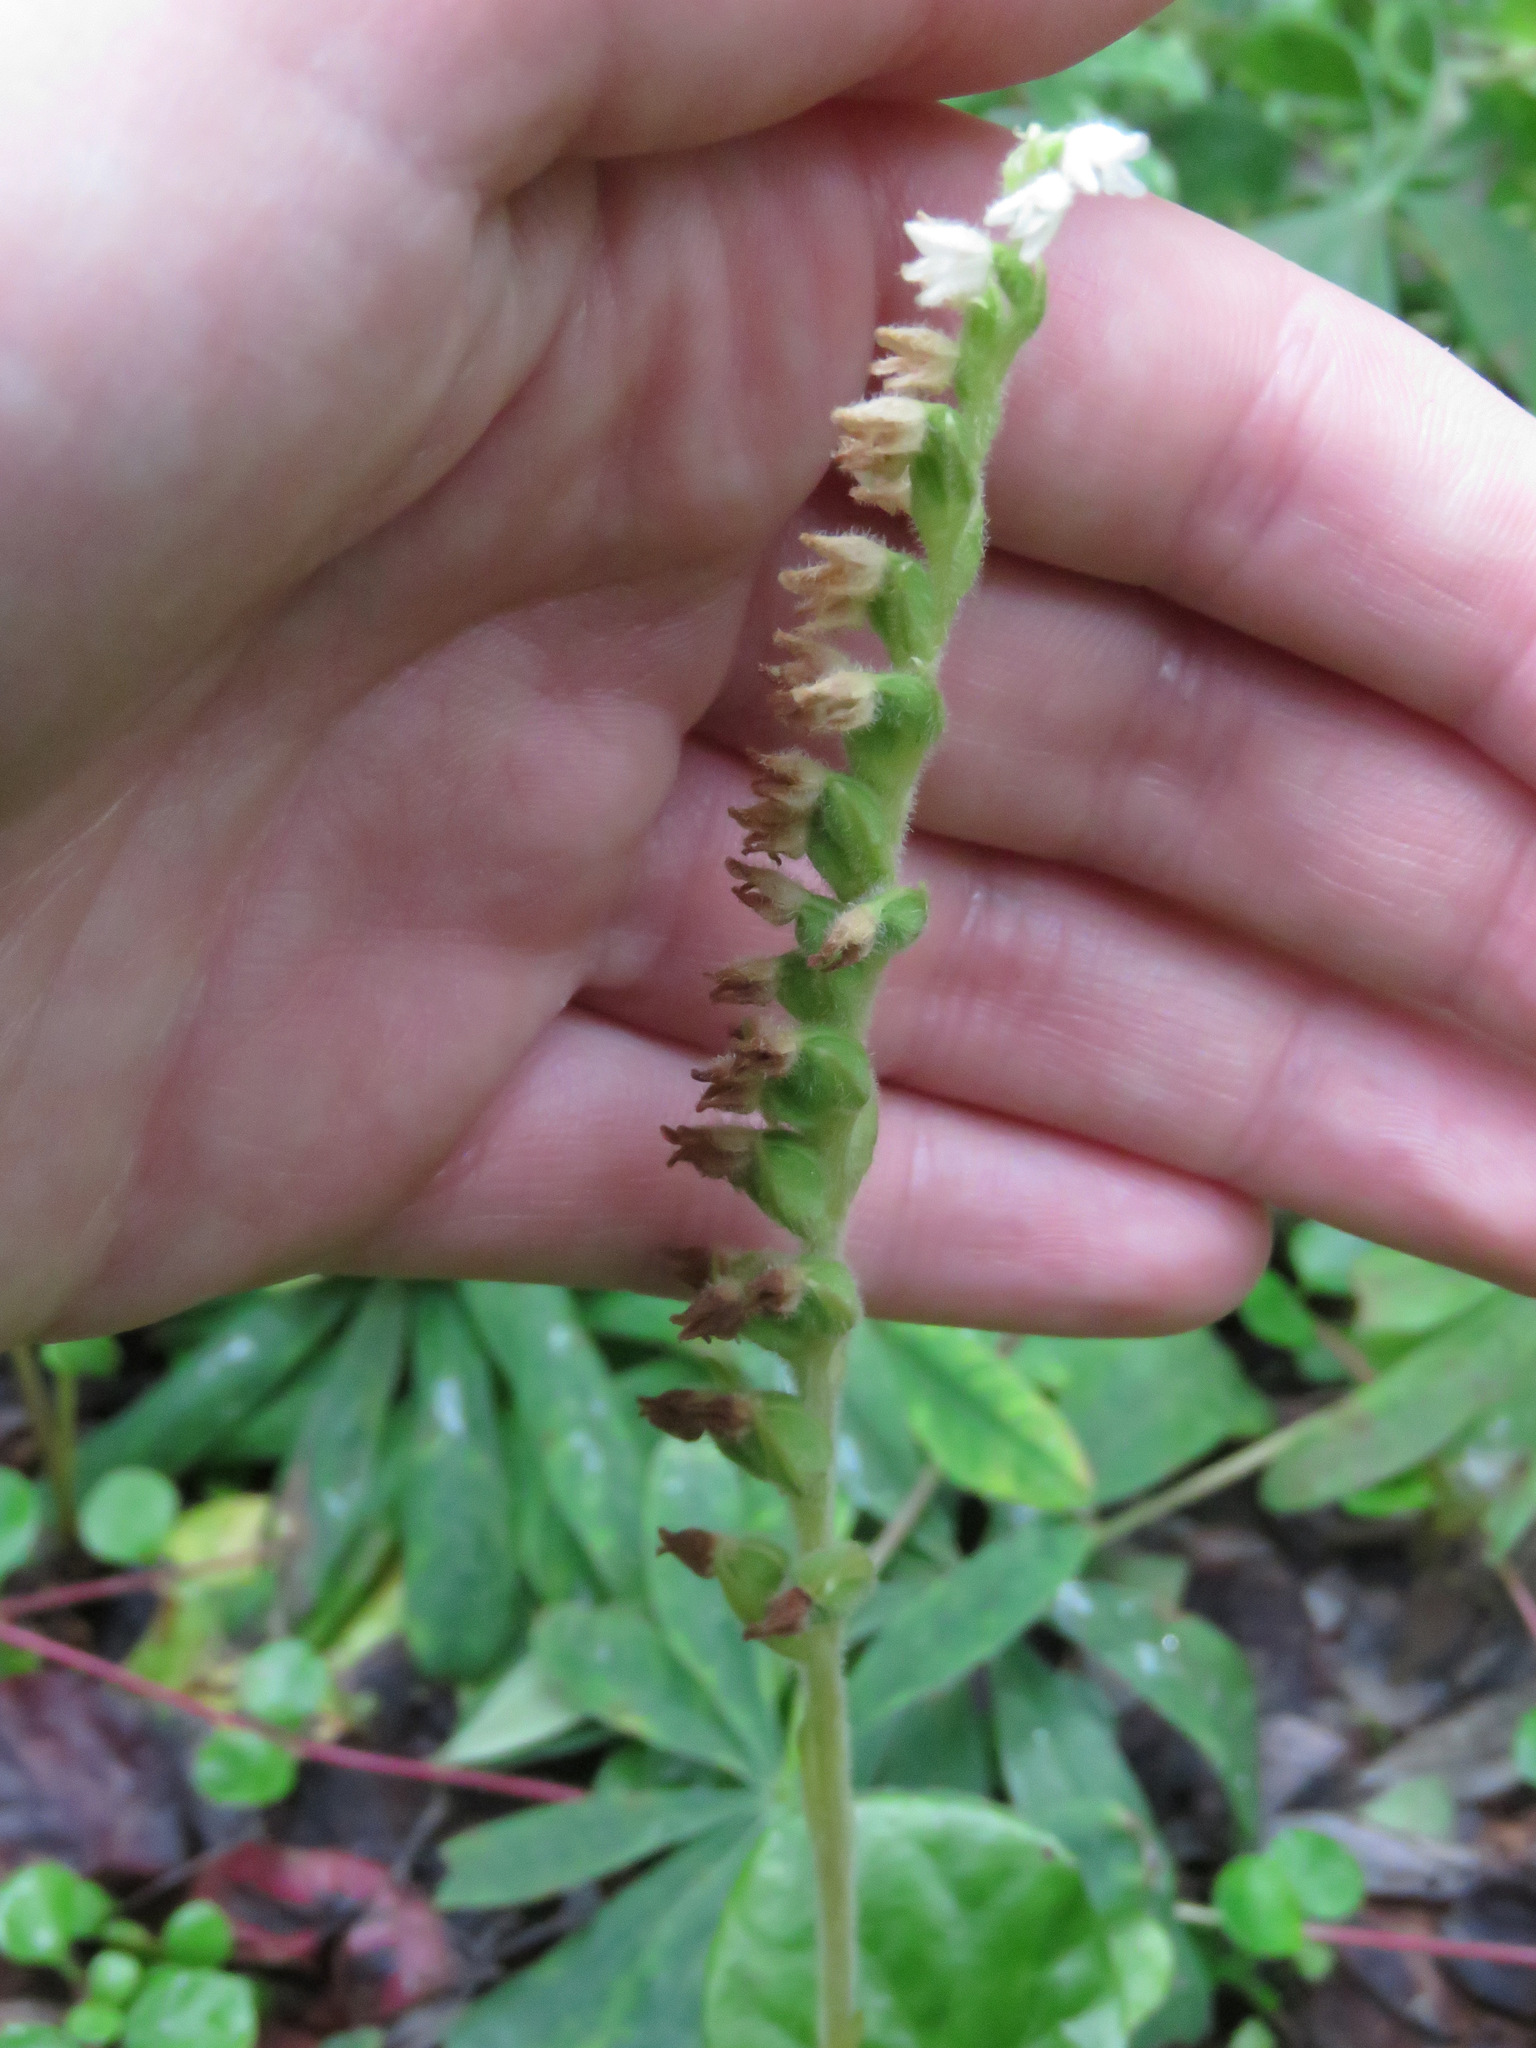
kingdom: Plantae
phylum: Tracheophyta
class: Liliopsida
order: Asparagales
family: Orchidaceae
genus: Goodyera
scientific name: Goodyera repens
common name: Creeping lady's-tresses
